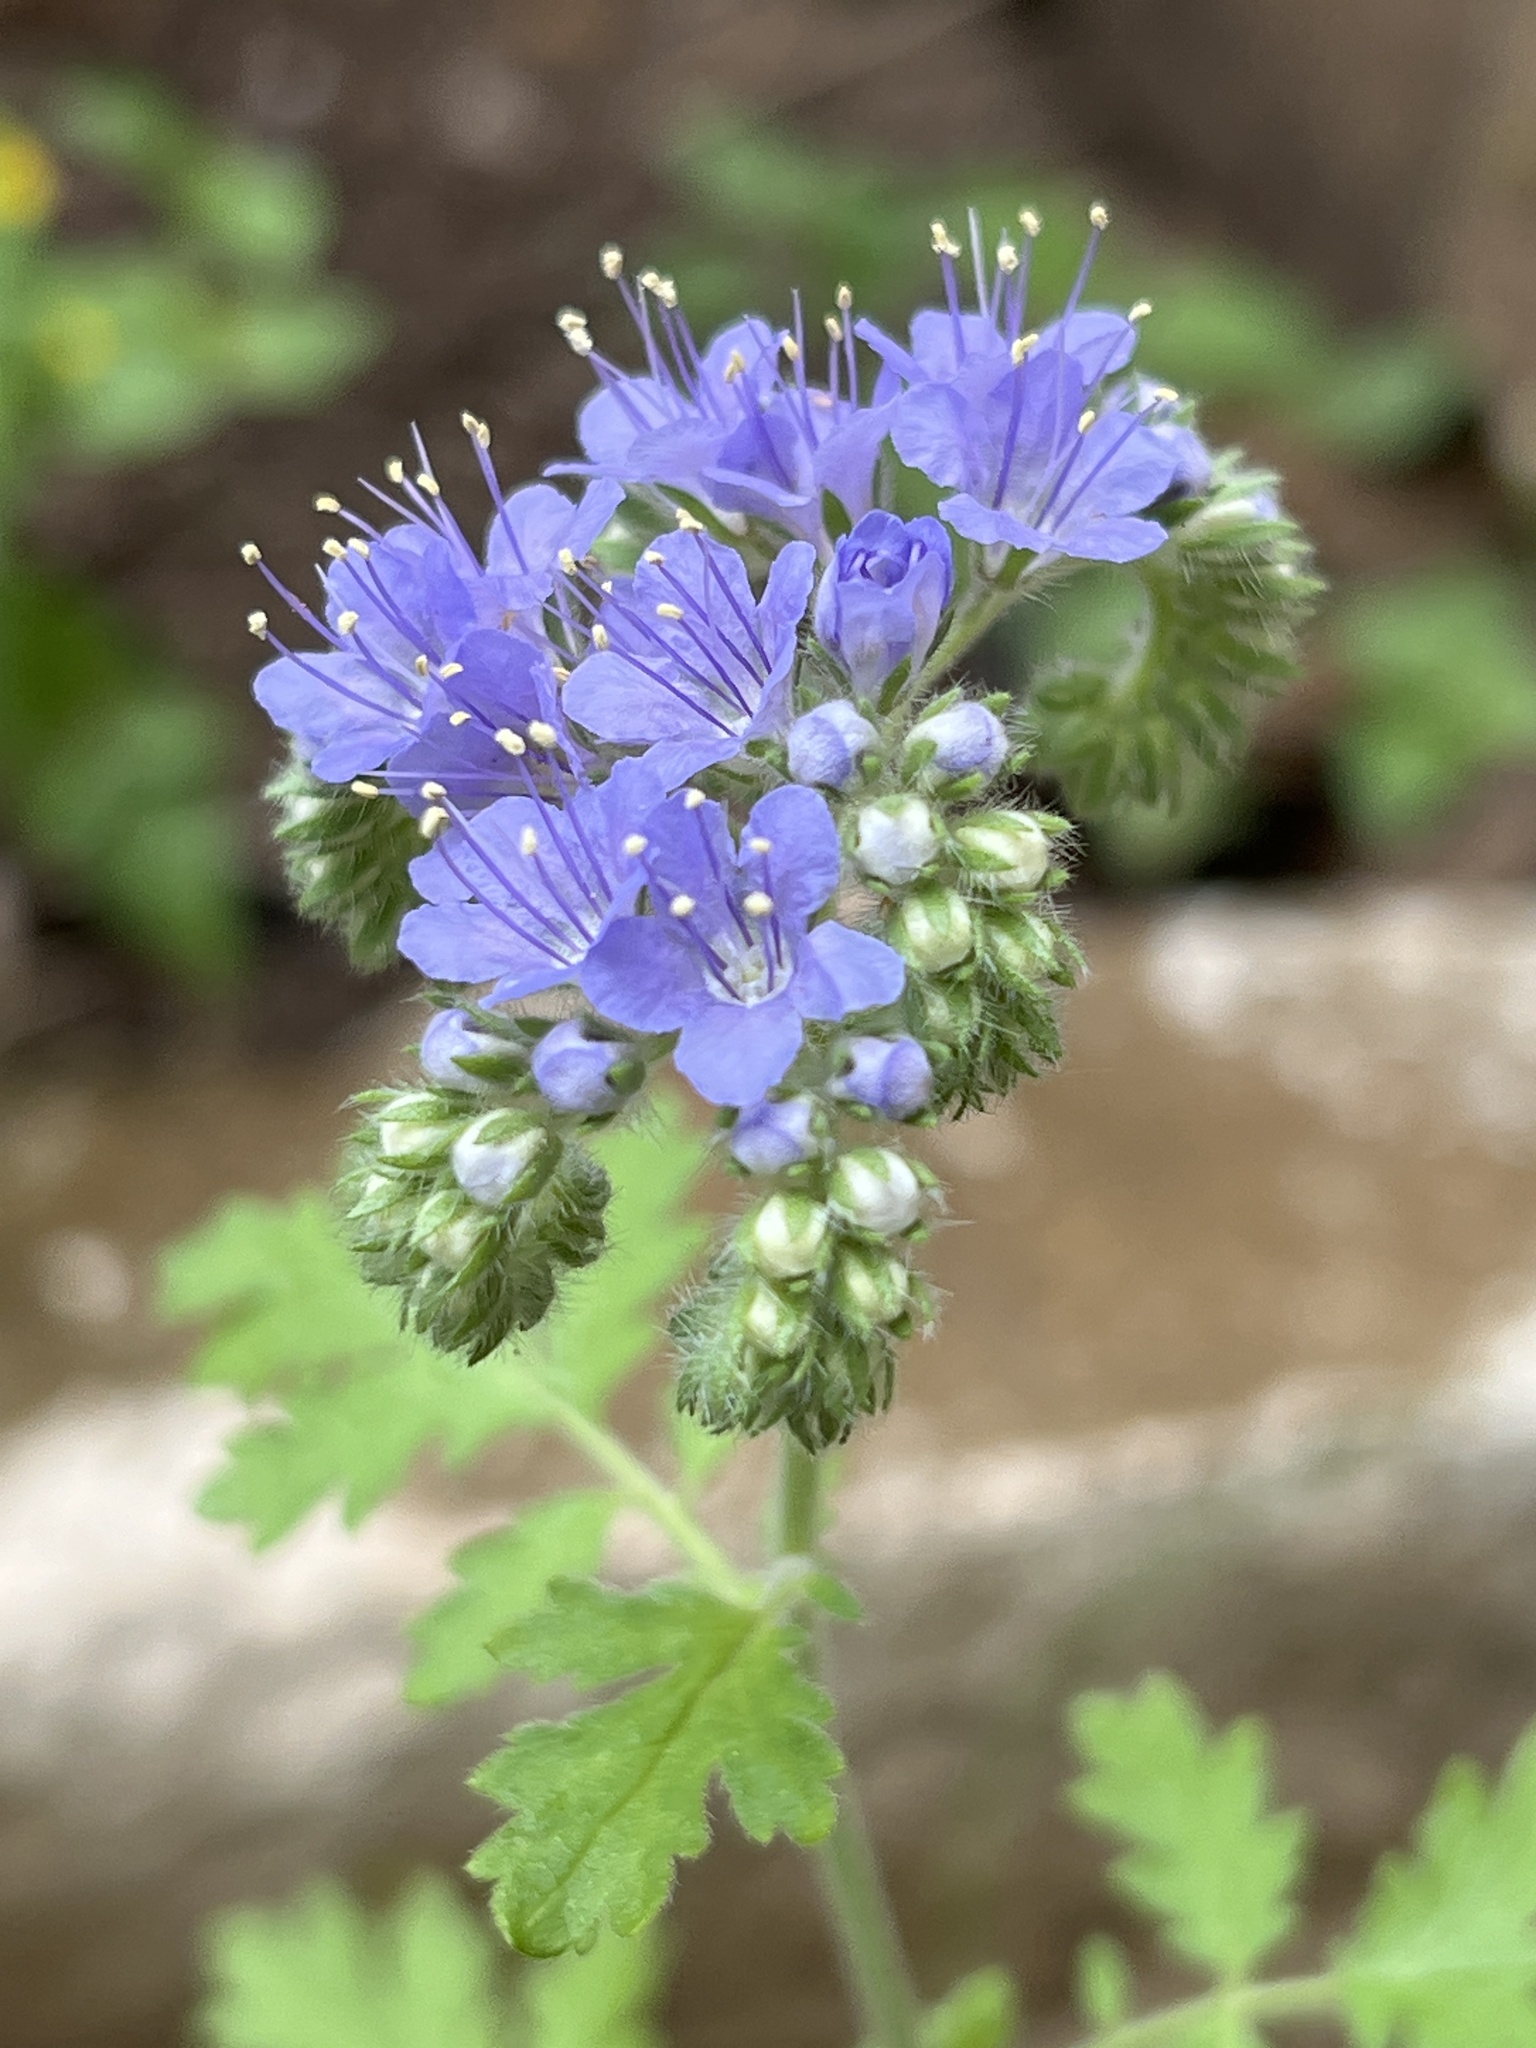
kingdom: Plantae
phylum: Tracheophyta
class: Magnoliopsida
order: Boraginales
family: Hydrophyllaceae
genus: Phacelia
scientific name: Phacelia congesta
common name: Blue curls
